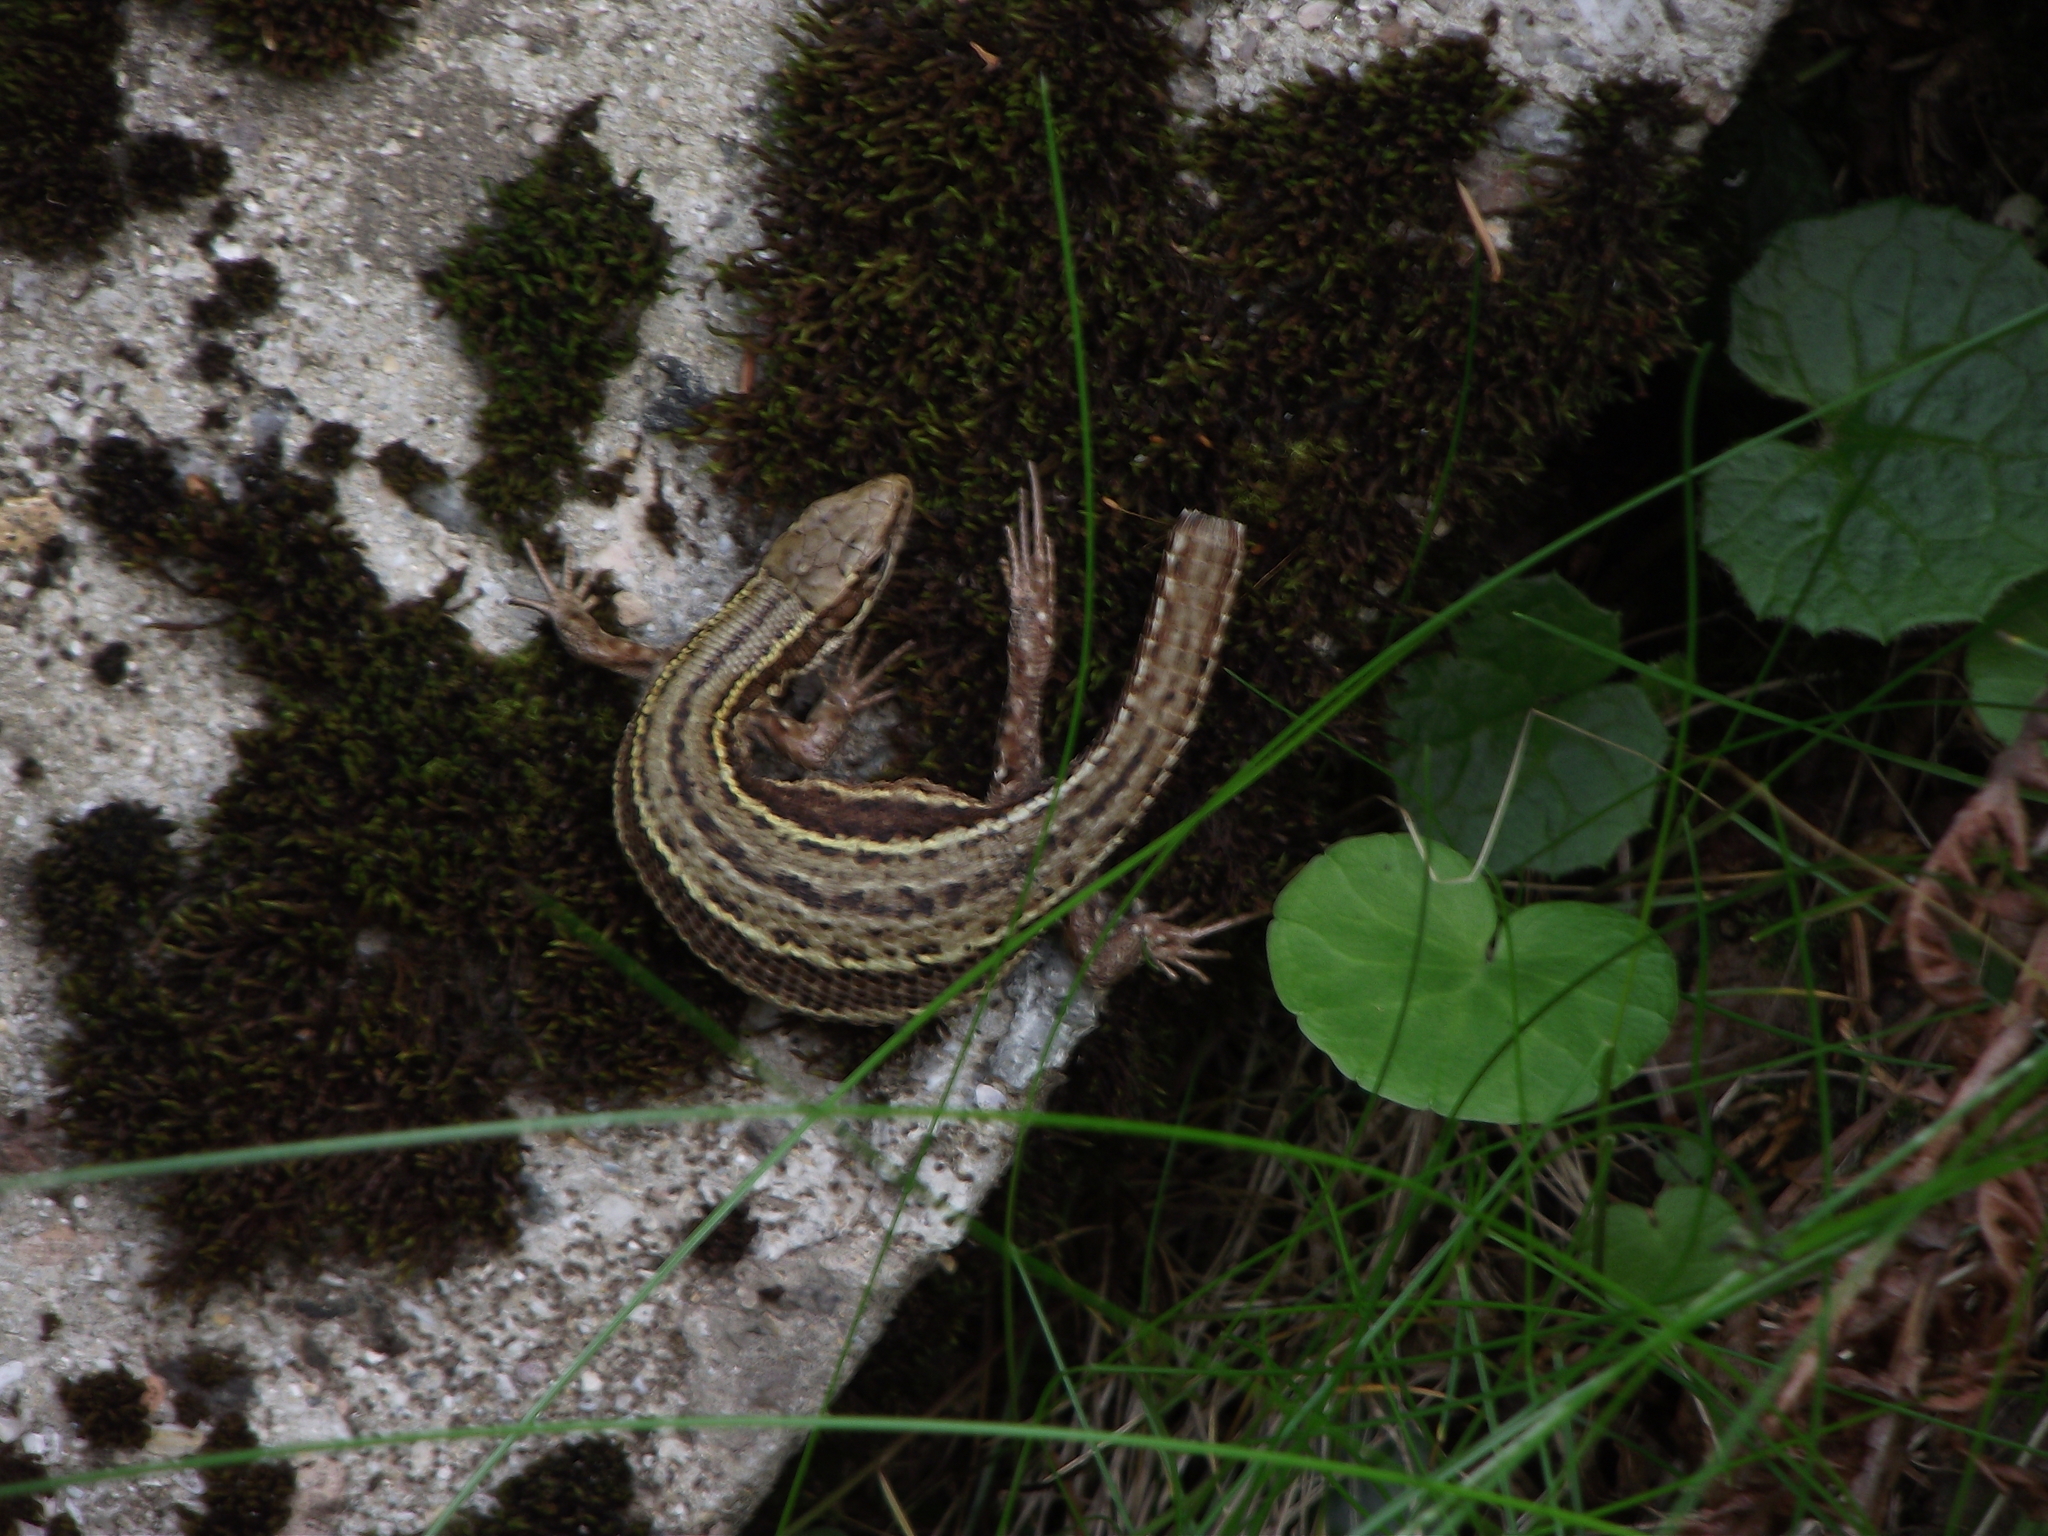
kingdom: Animalia
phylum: Chordata
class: Squamata
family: Lacertidae
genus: Zootoca
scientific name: Zootoca vivipara
